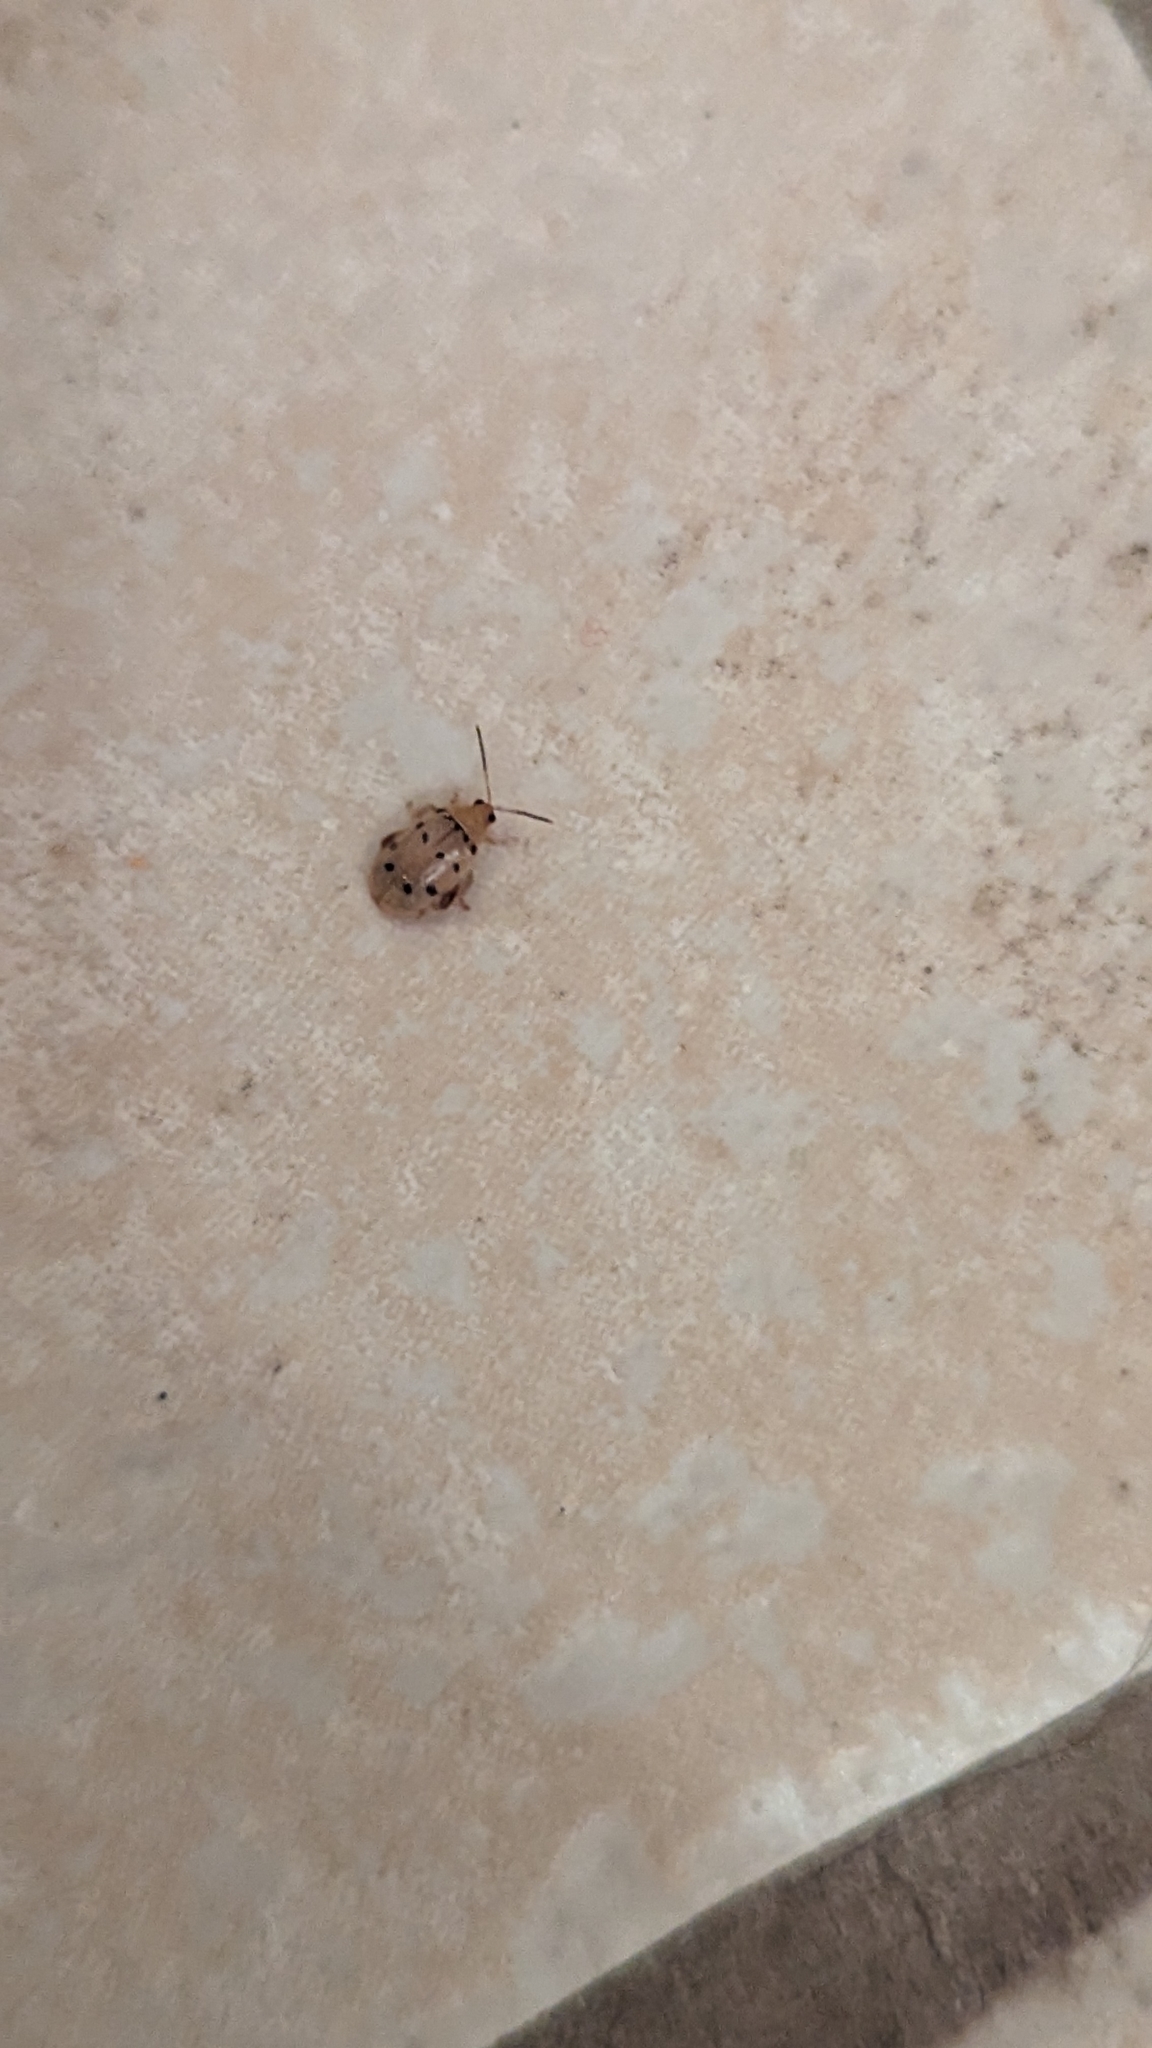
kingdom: Animalia
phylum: Arthropoda
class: Insecta
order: Coleoptera
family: Chrysomelidae
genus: Walterianella
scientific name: Walterianella
